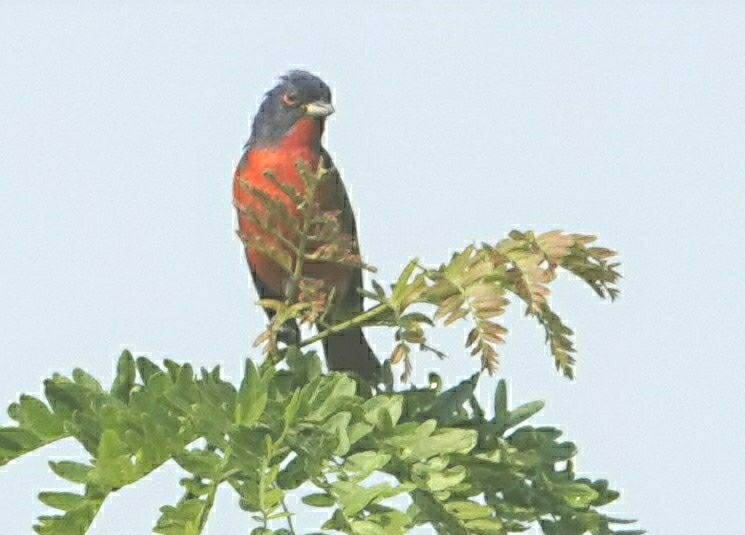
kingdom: Animalia
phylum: Chordata
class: Aves
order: Passeriformes
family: Cardinalidae
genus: Passerina
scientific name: Passerina ciris
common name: Painted bunting
